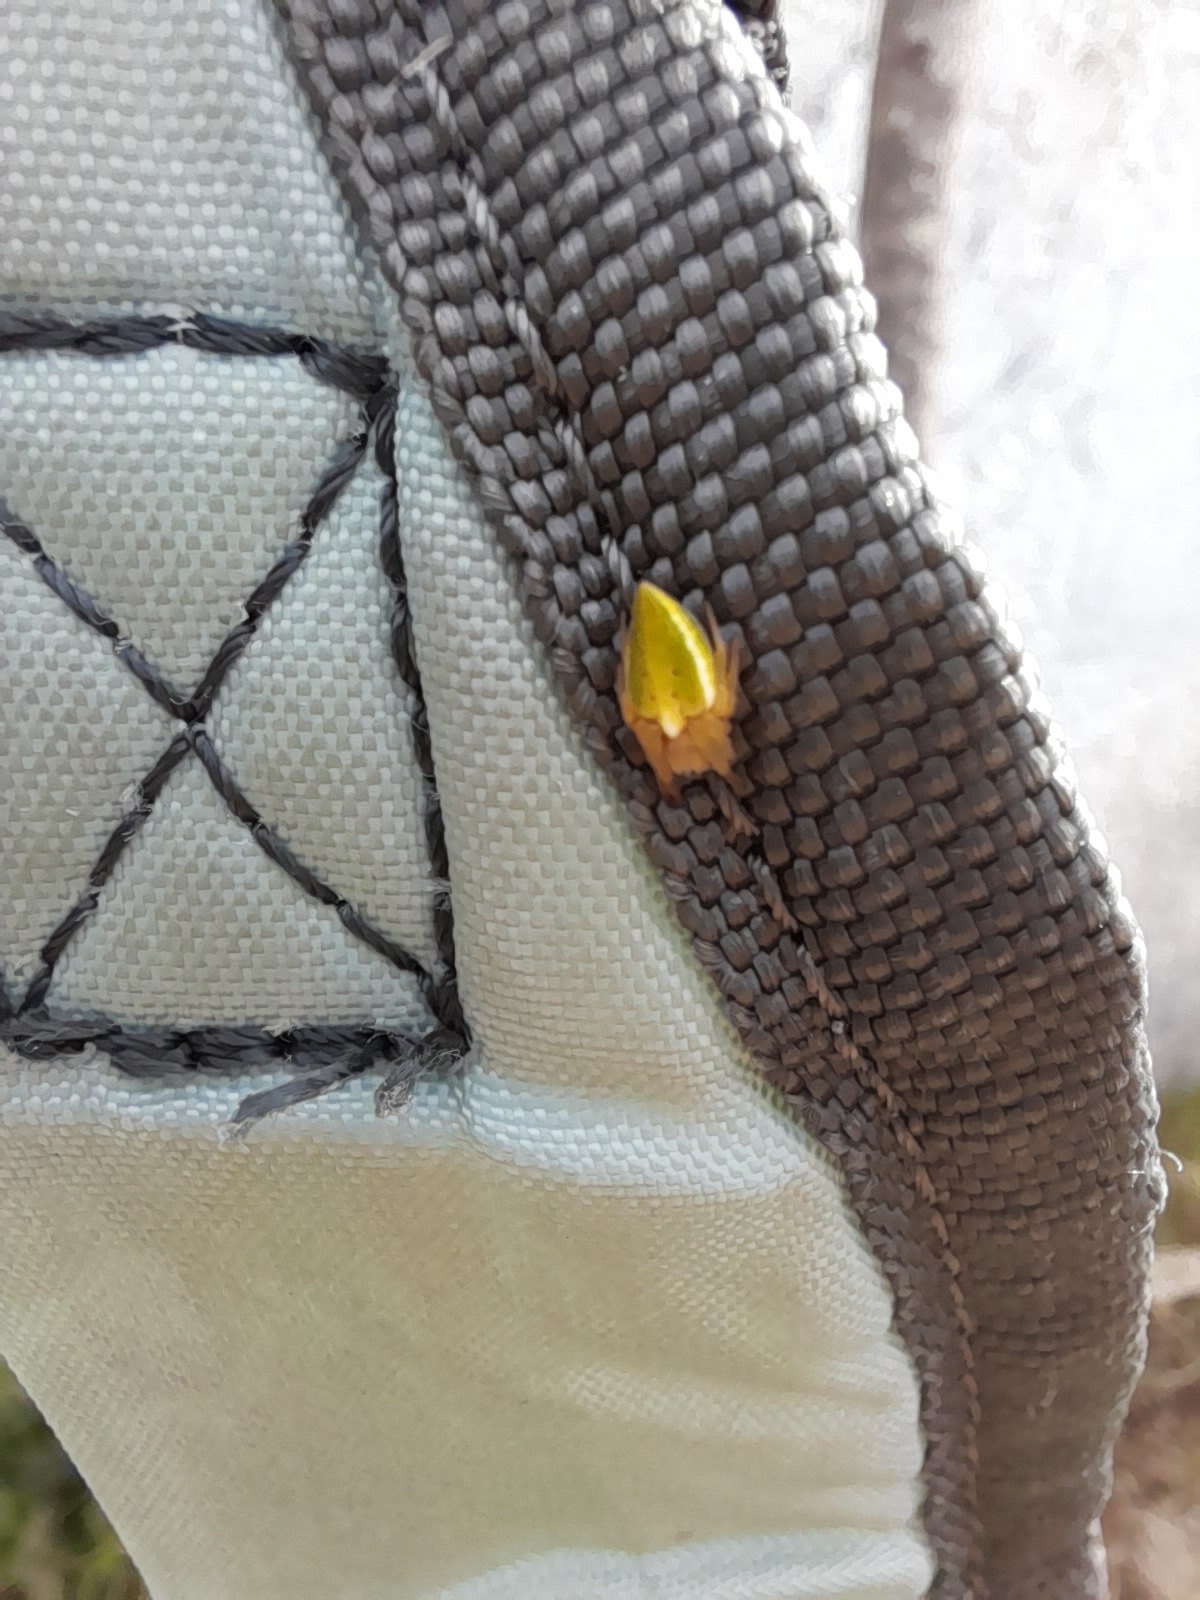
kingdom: Animalia
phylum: Arthropoda
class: Arachnida
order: Araneae
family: Araneidae
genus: Alpaida
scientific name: Alpaida costai
